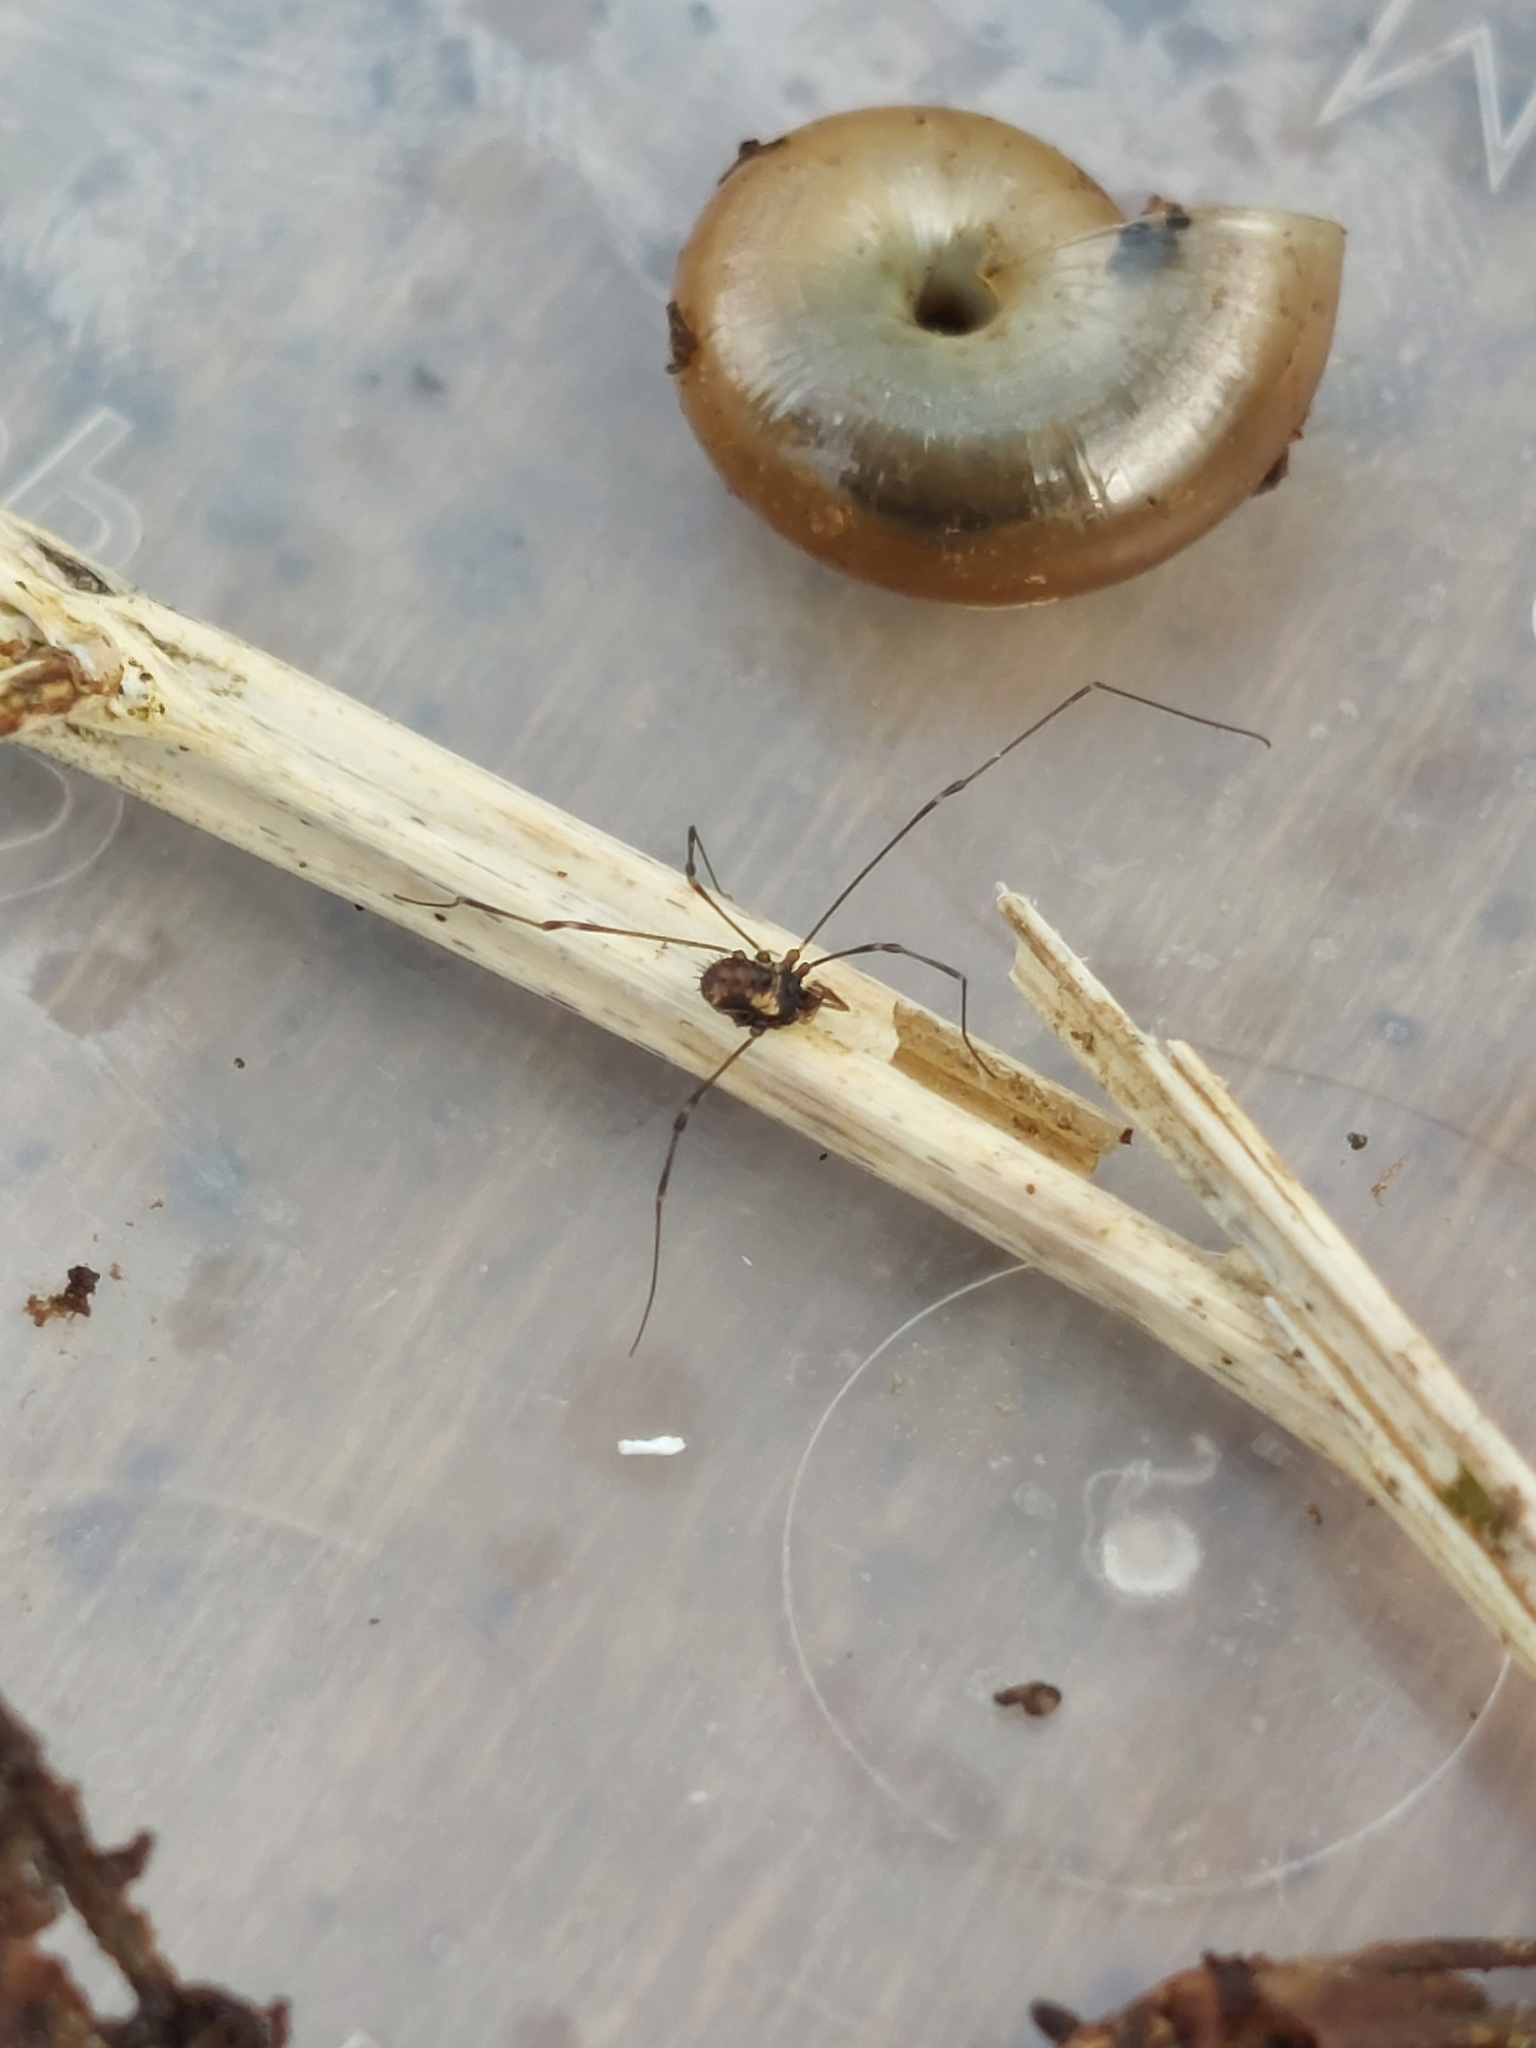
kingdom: Animalia
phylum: Arthropoda
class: Arachnida
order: Opiliones
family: Nemastomatidae
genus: Nemastomella
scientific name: Nemastomella bacillifera
